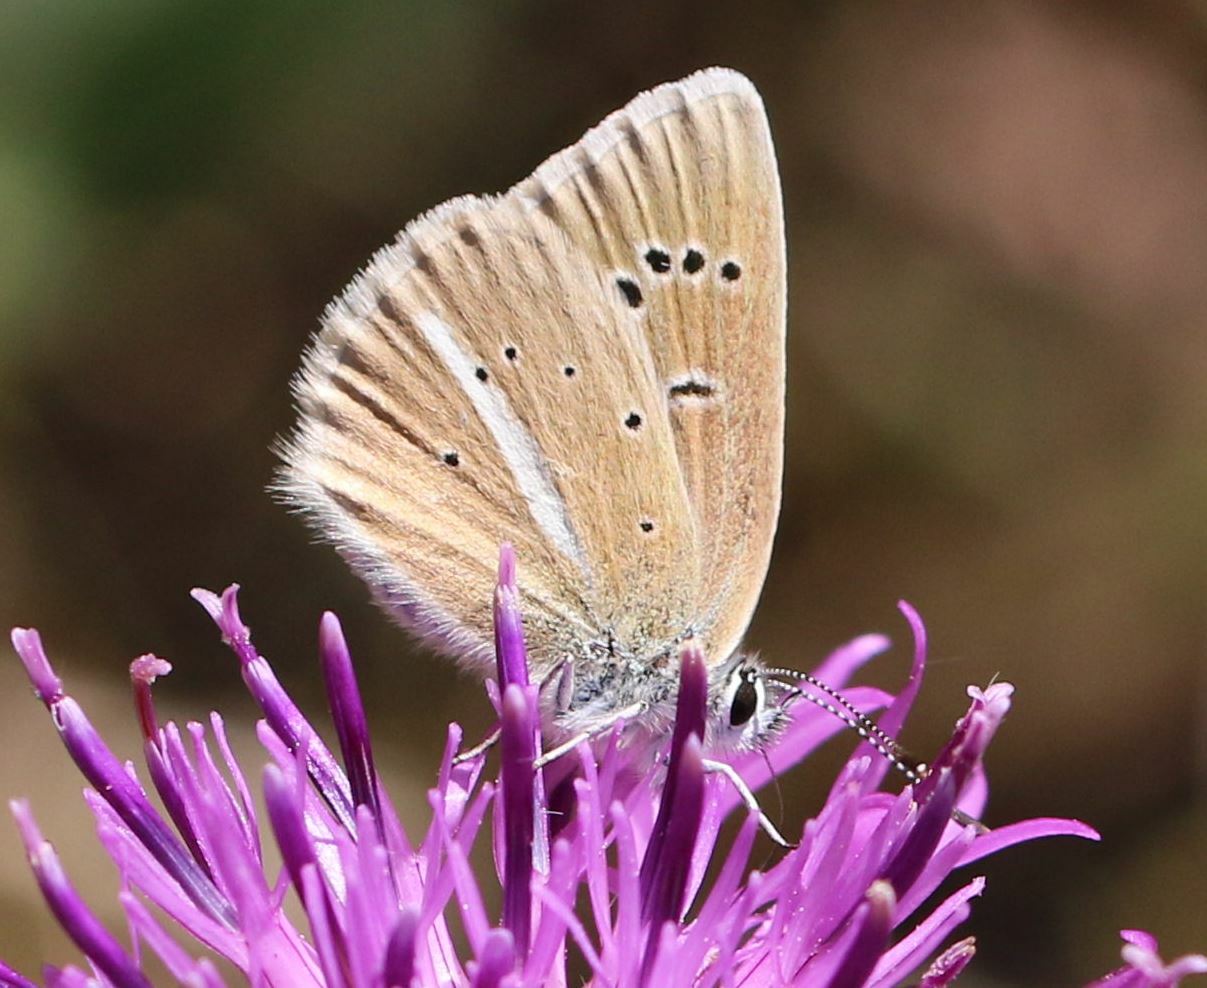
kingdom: Animalia
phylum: Arthropoda
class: Insecta
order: Lepidoptera
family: Lycaenidae
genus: Agrodiaetus
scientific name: Agrodiaetus damon
